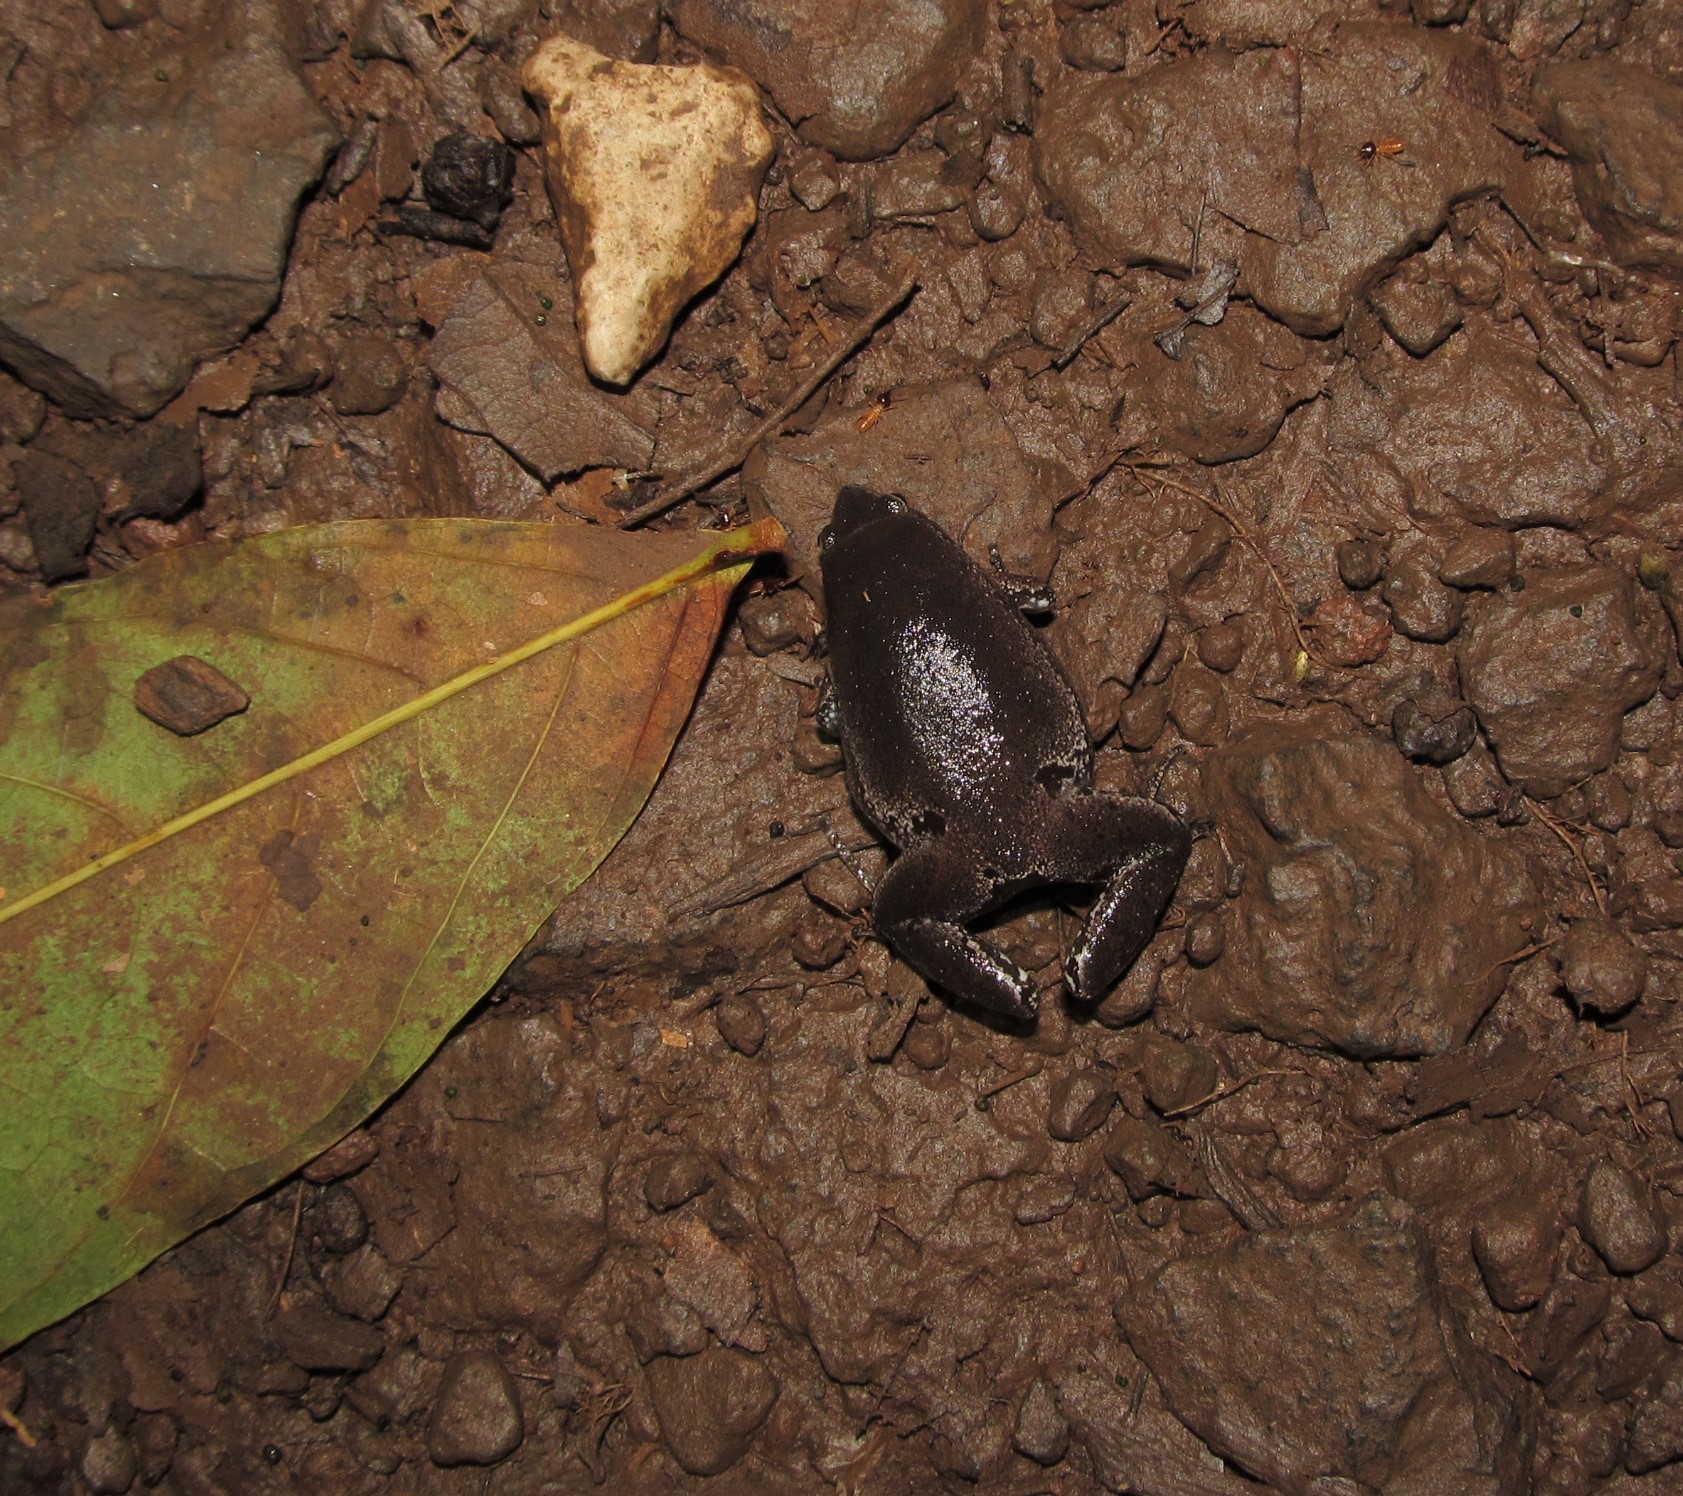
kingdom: Animalia
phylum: Chordata
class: Amphibia
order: Anura
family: Microhylidae
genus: Gastrophryne
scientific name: Gastrophryne elegans
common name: Elegant narrowmouth toad
